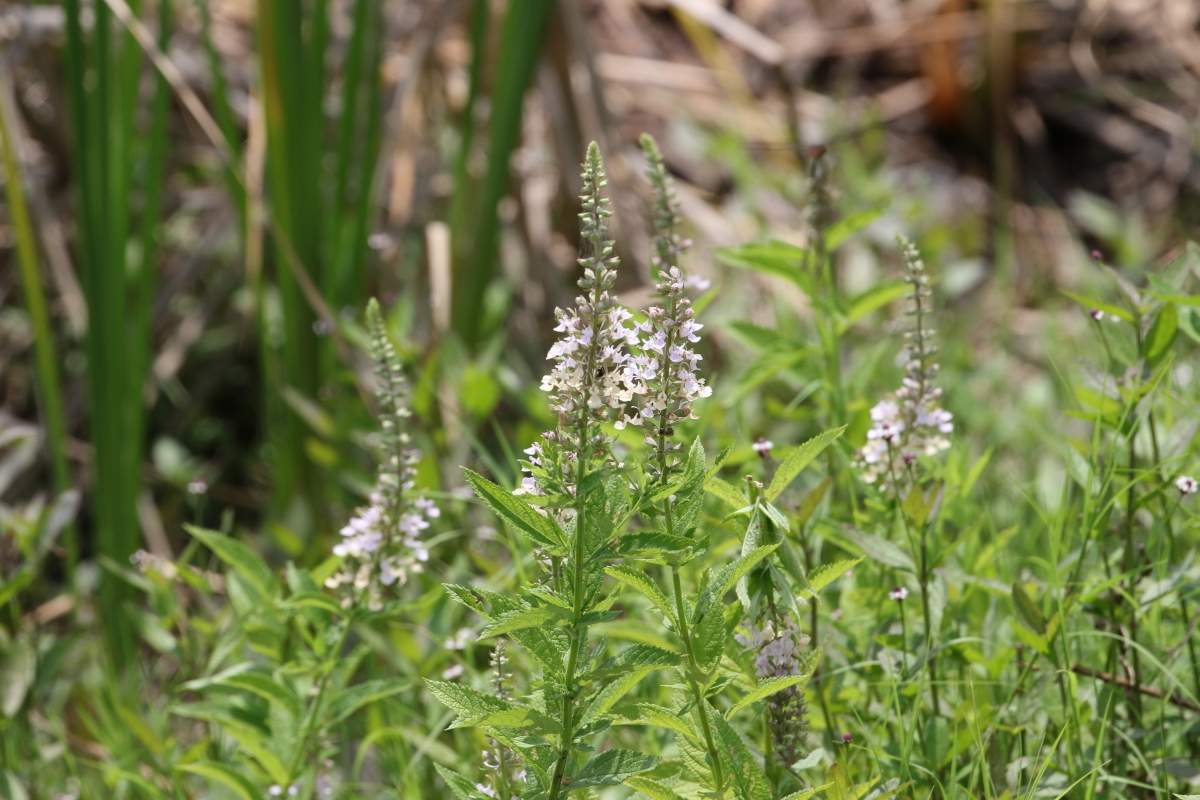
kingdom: Plantae
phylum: Tracheophyta
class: Magnoliopsida
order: Lamiales
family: Lamiaceae
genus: Teucrium
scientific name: Teucrium canadense
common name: American germander
